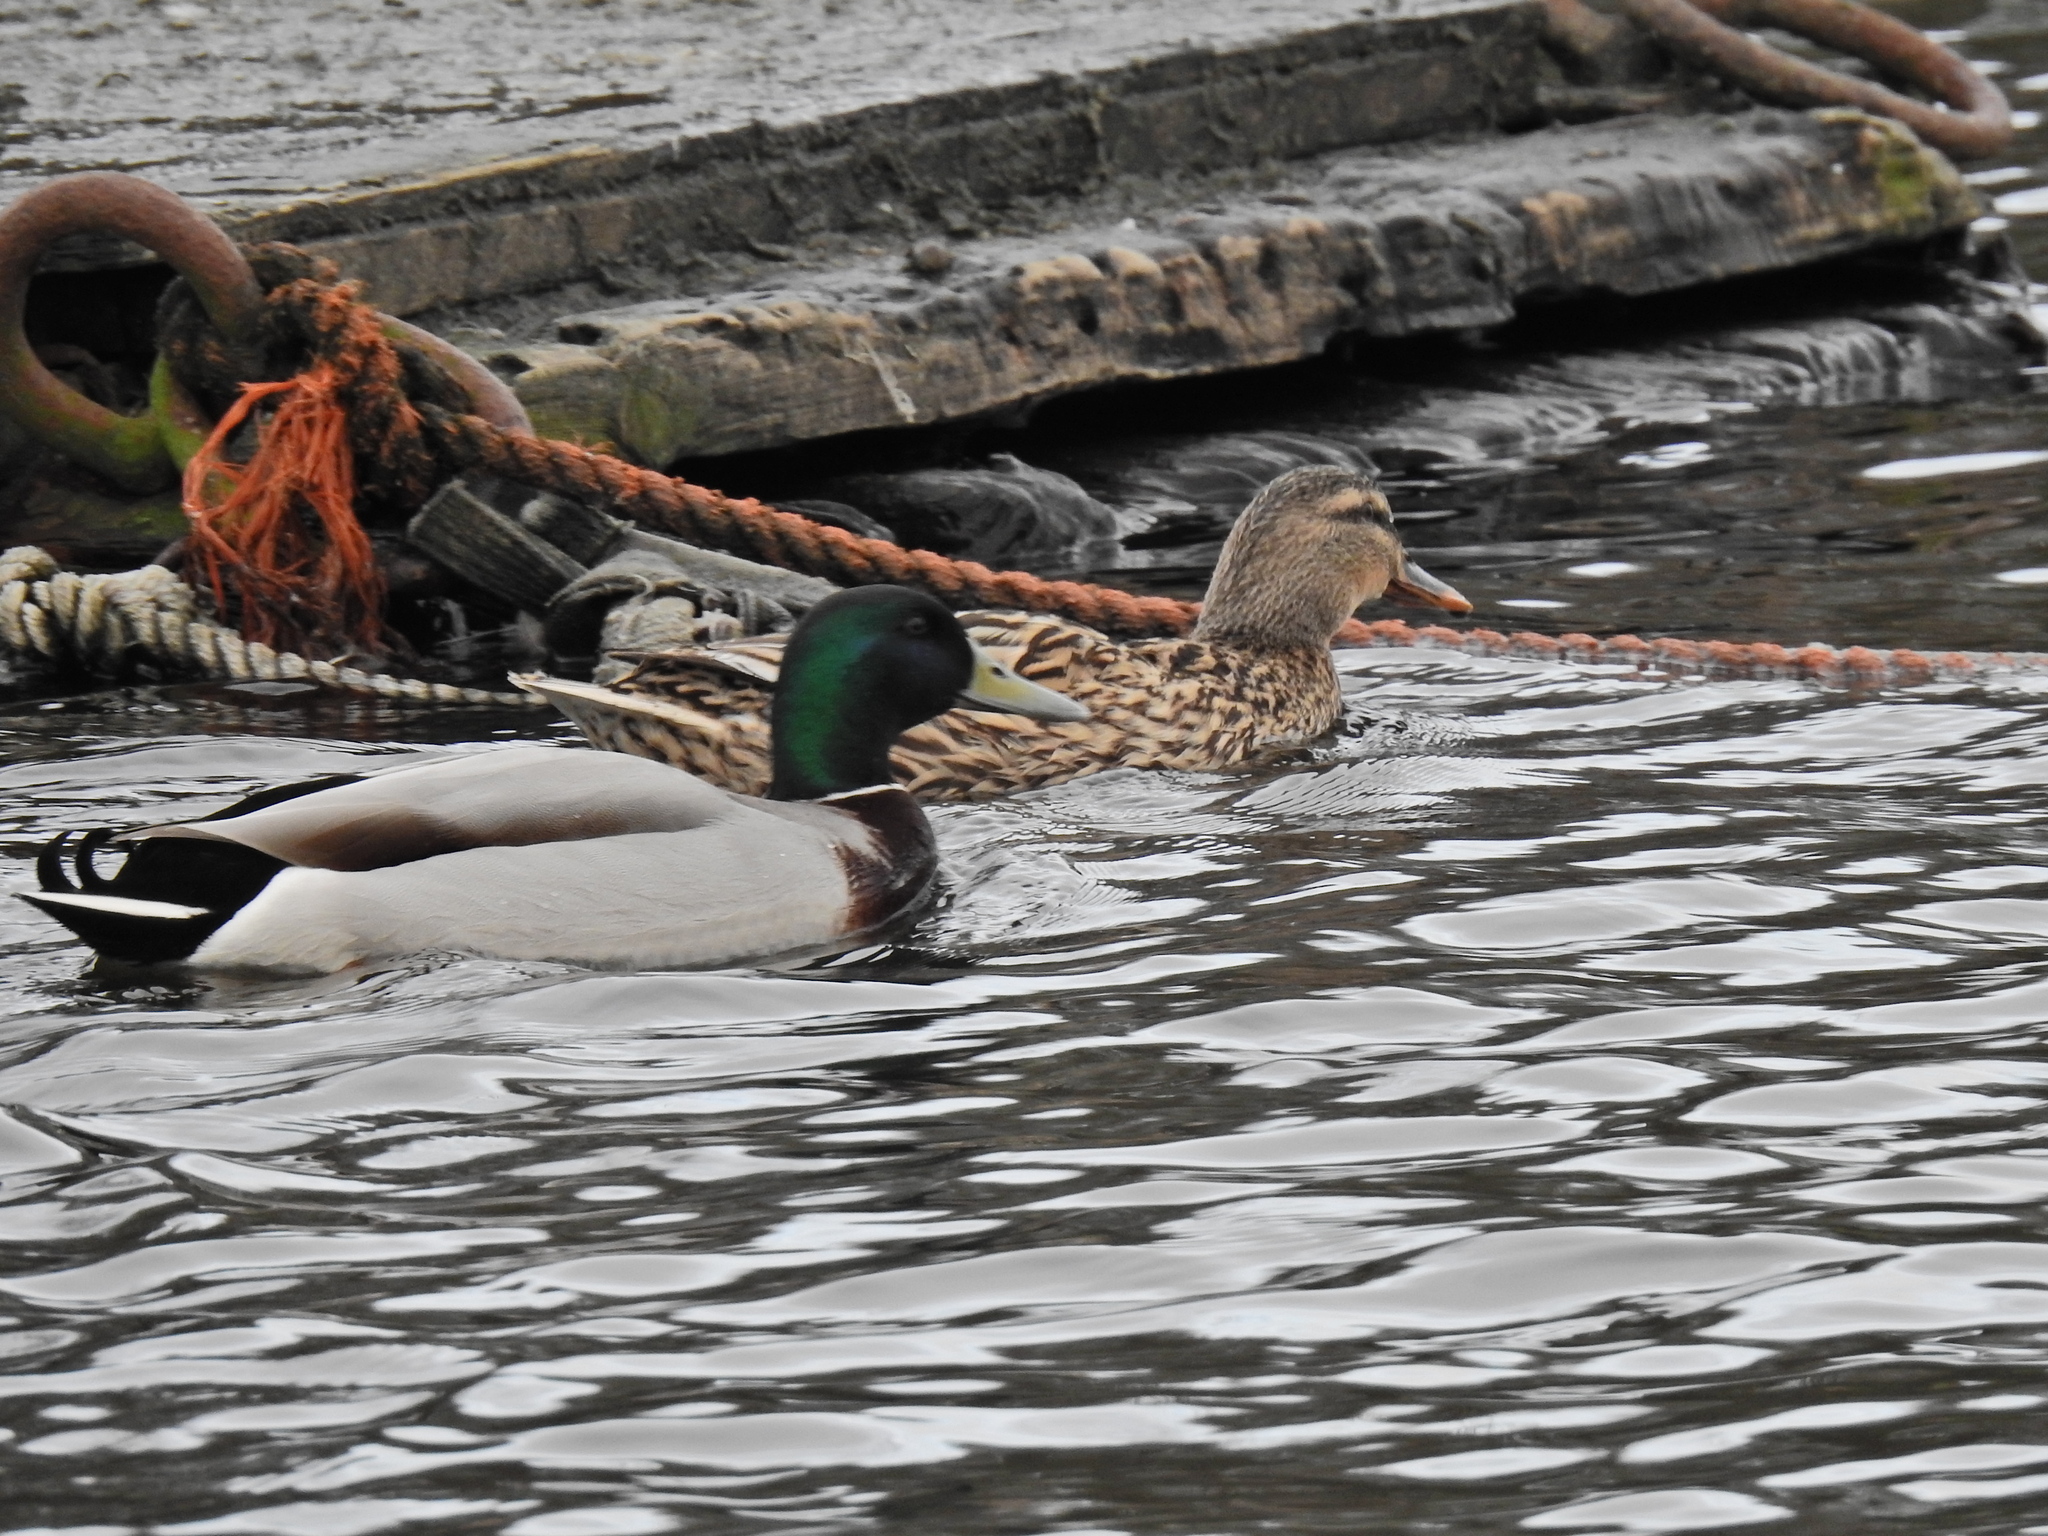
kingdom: Animalia
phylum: Chordata
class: Aves
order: Anseriformes
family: Anatidae
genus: Anas
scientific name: Anas platyrhynchos
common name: Mallard
